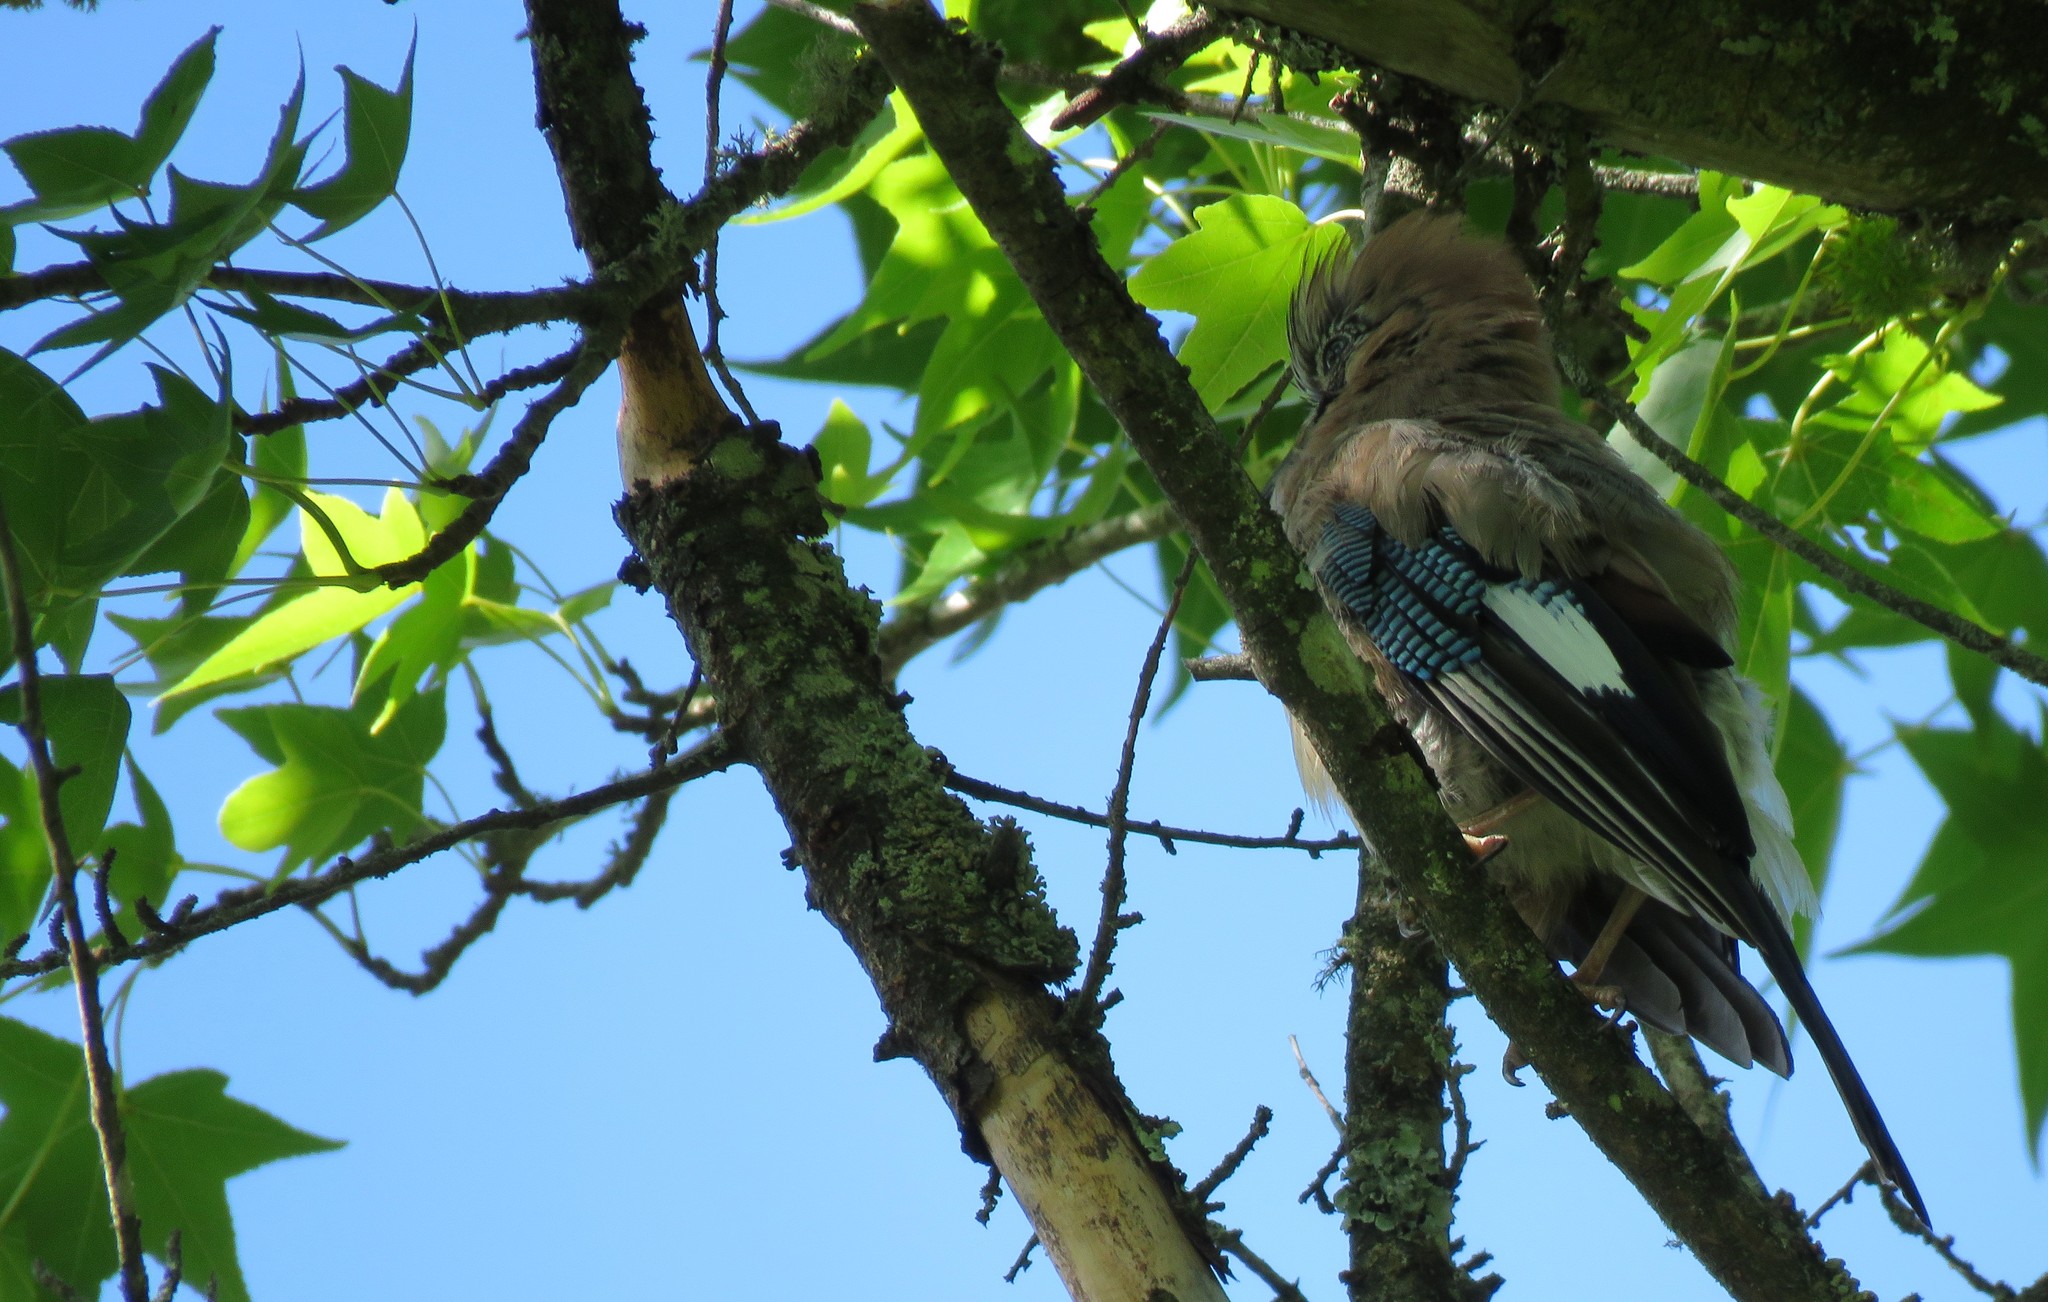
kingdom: Animalia
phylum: Chordata
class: Aves
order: Passeriformes
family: Corvidae
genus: Garrulus
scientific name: Garrulus glandarius
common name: Eurasian jay
